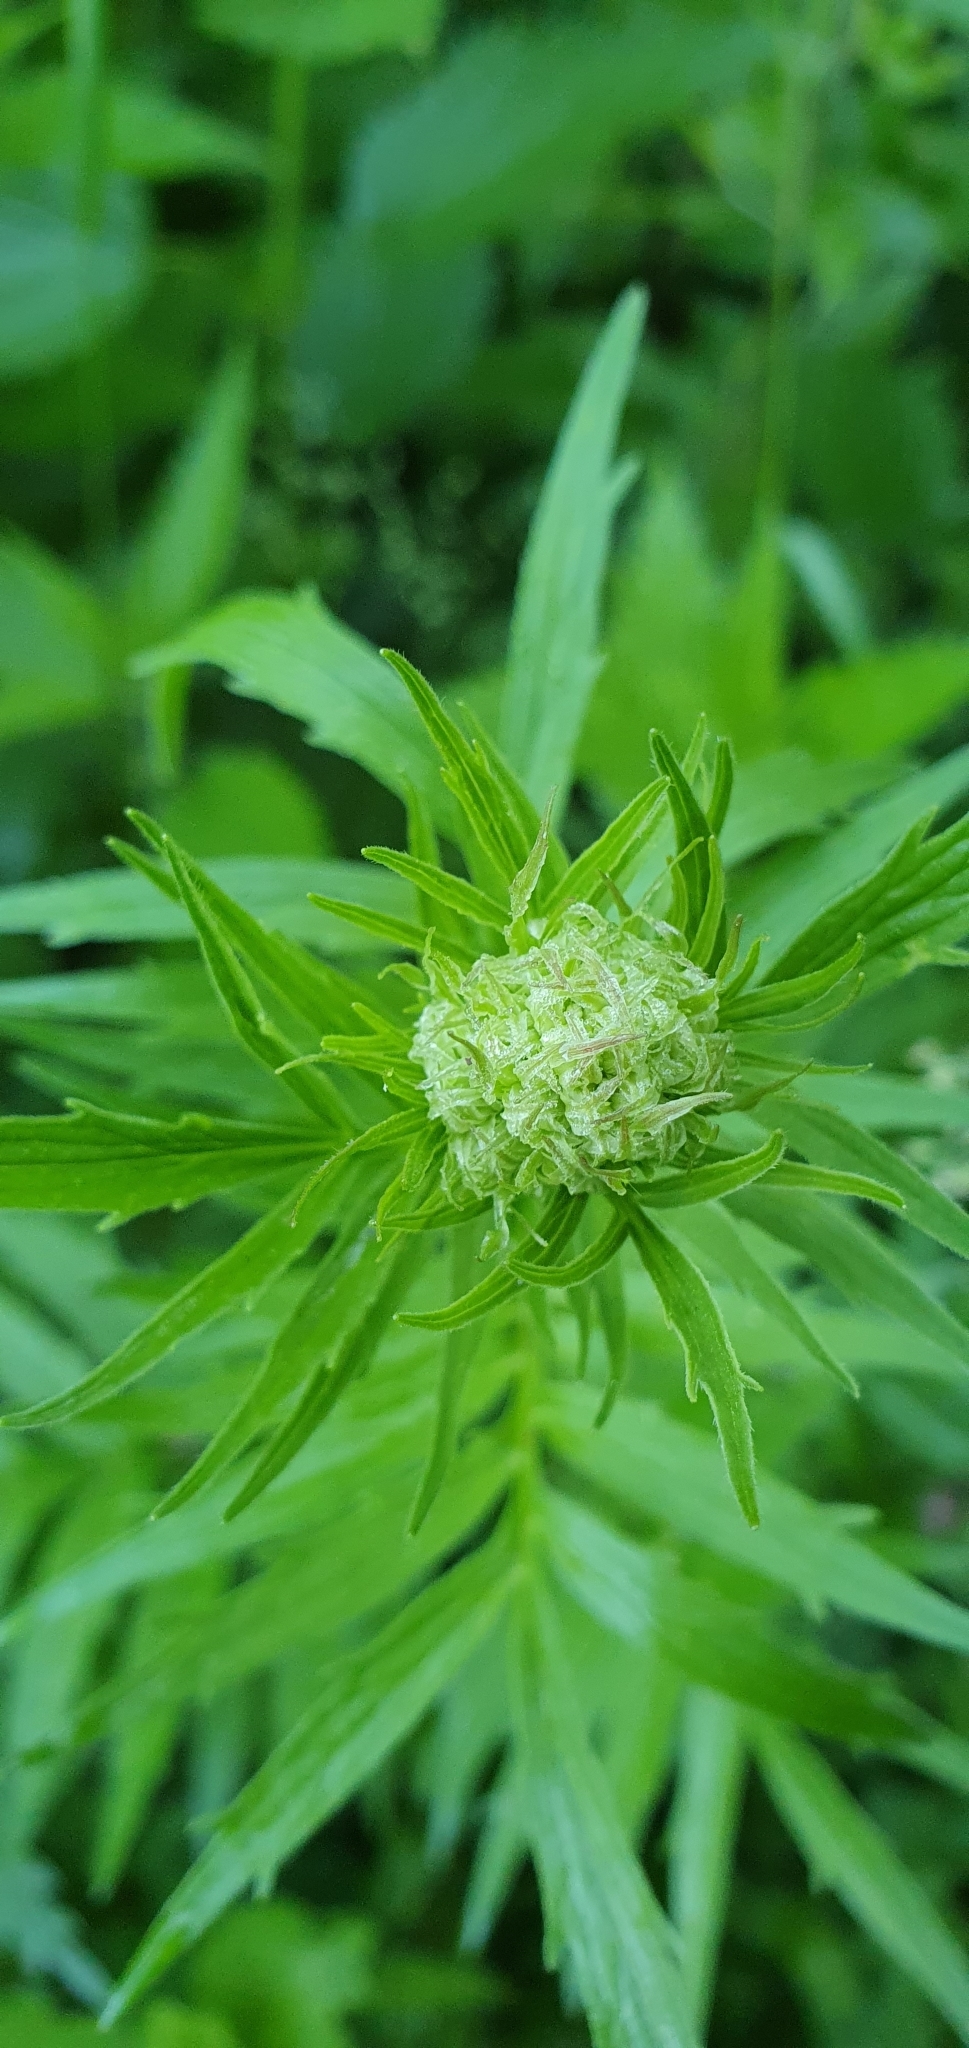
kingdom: Plantae
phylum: Tracheophyta
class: Magnoliopsida
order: Dipsacales
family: Caprifoliaceae
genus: Valeriana
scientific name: Valeriana officinalis
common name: Common valerian
